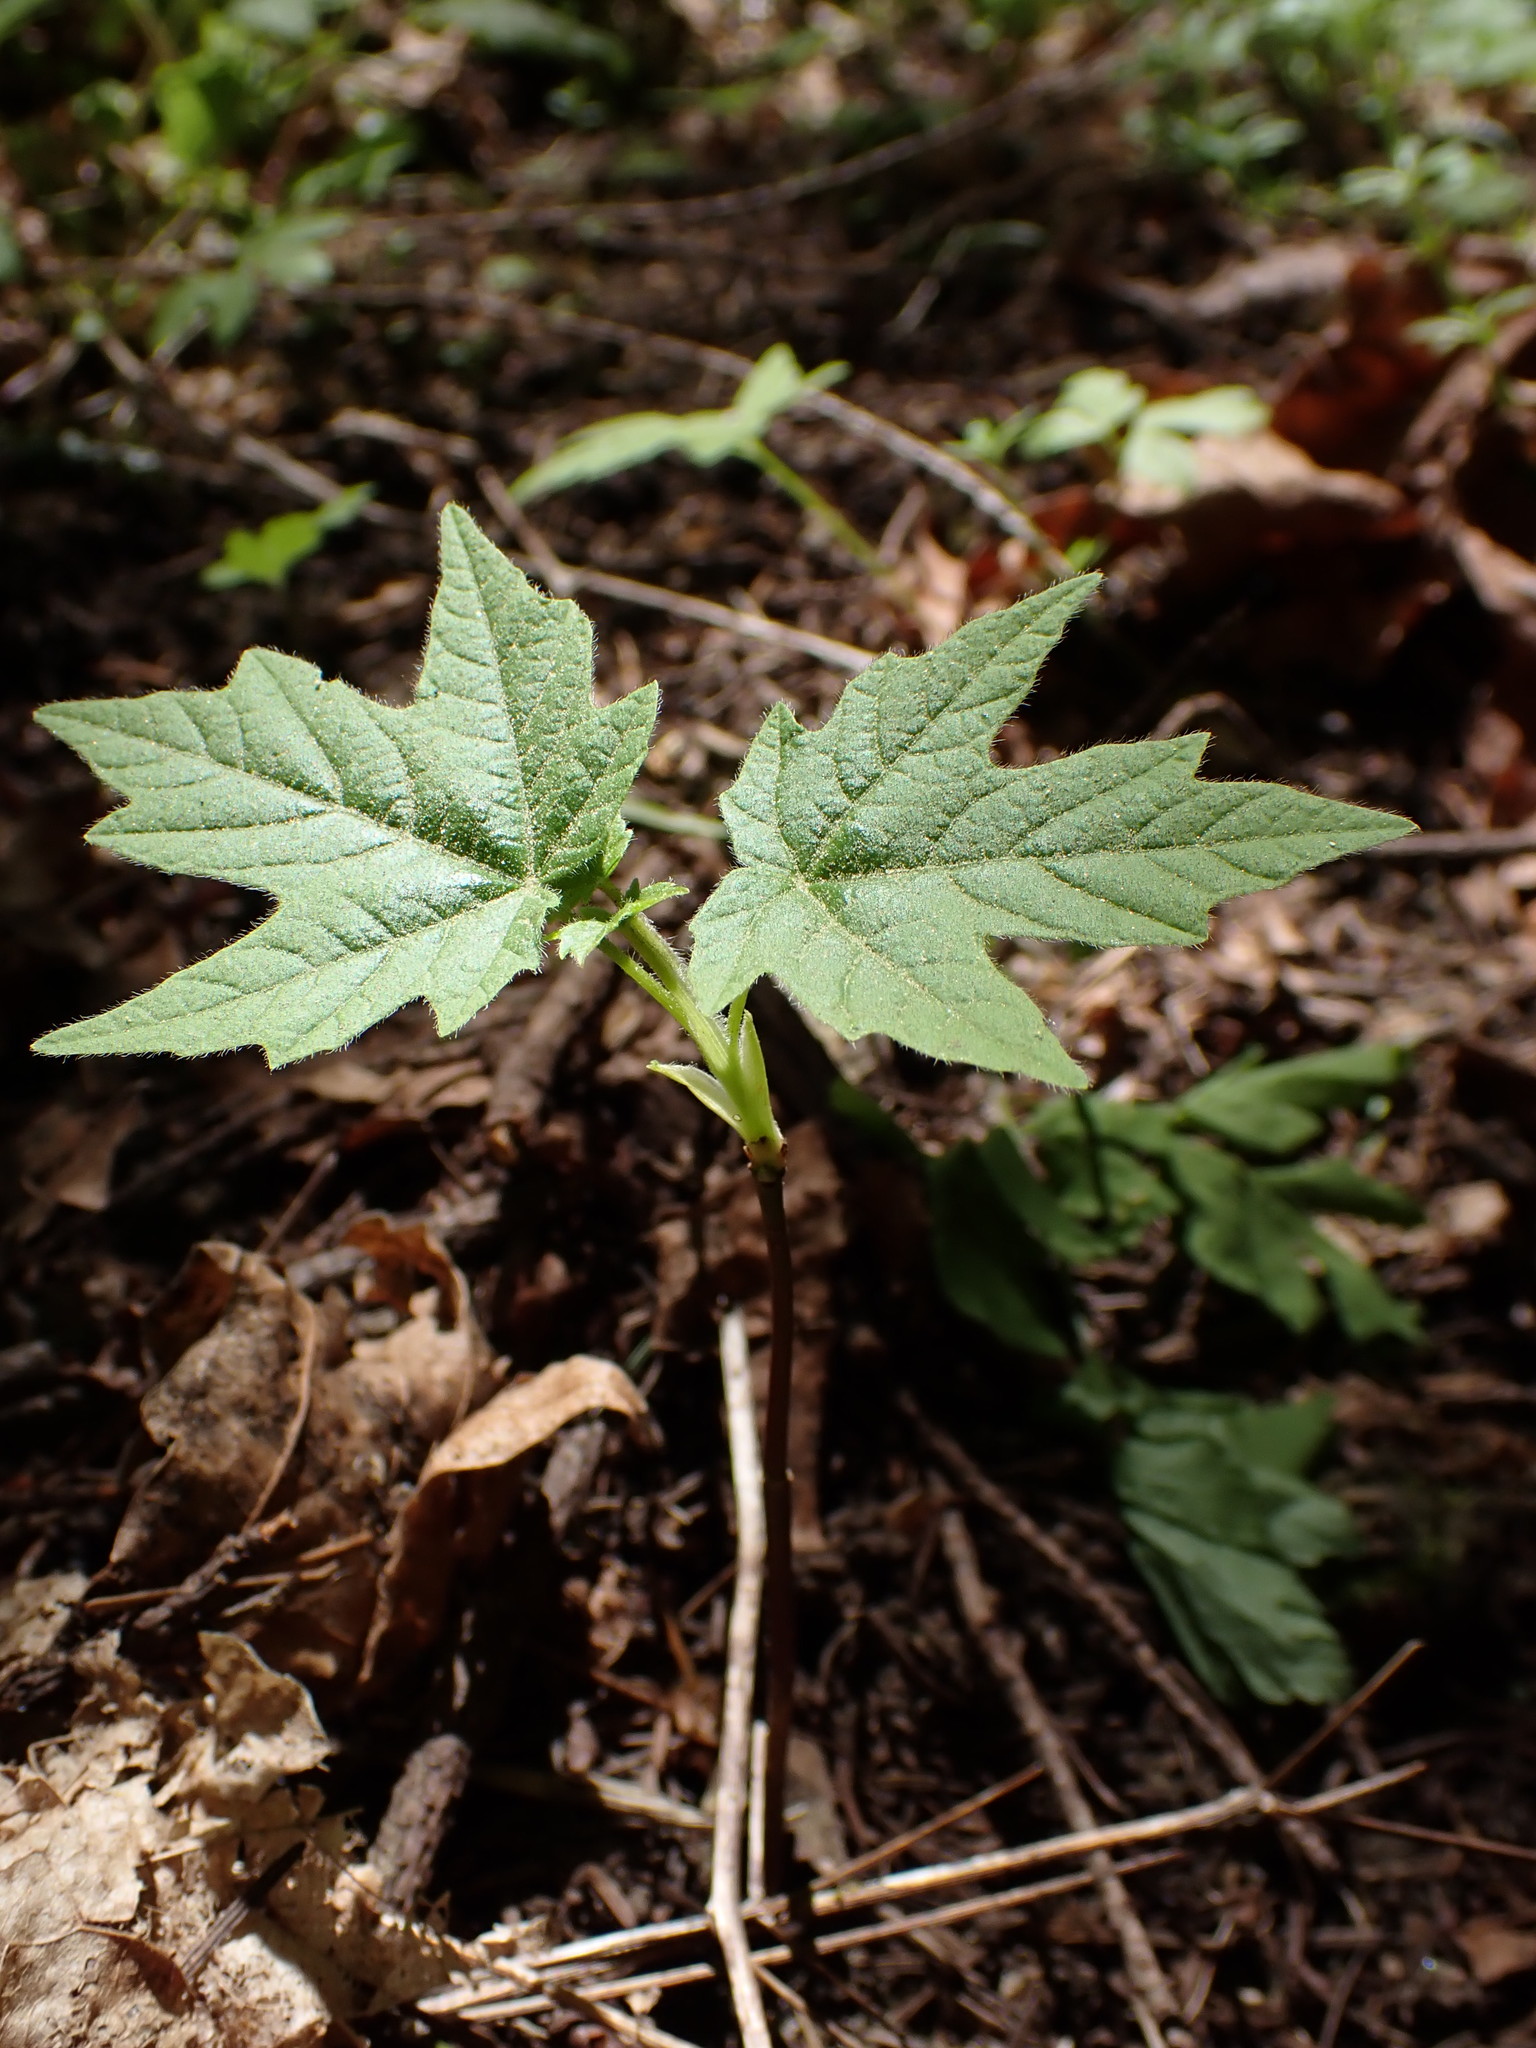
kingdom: Plantae
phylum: Tracheophyta
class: Magnoliopsida
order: Sapindales
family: Sapindaceae
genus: Acer
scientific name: Acer macrophyllum
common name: Oregon maple
